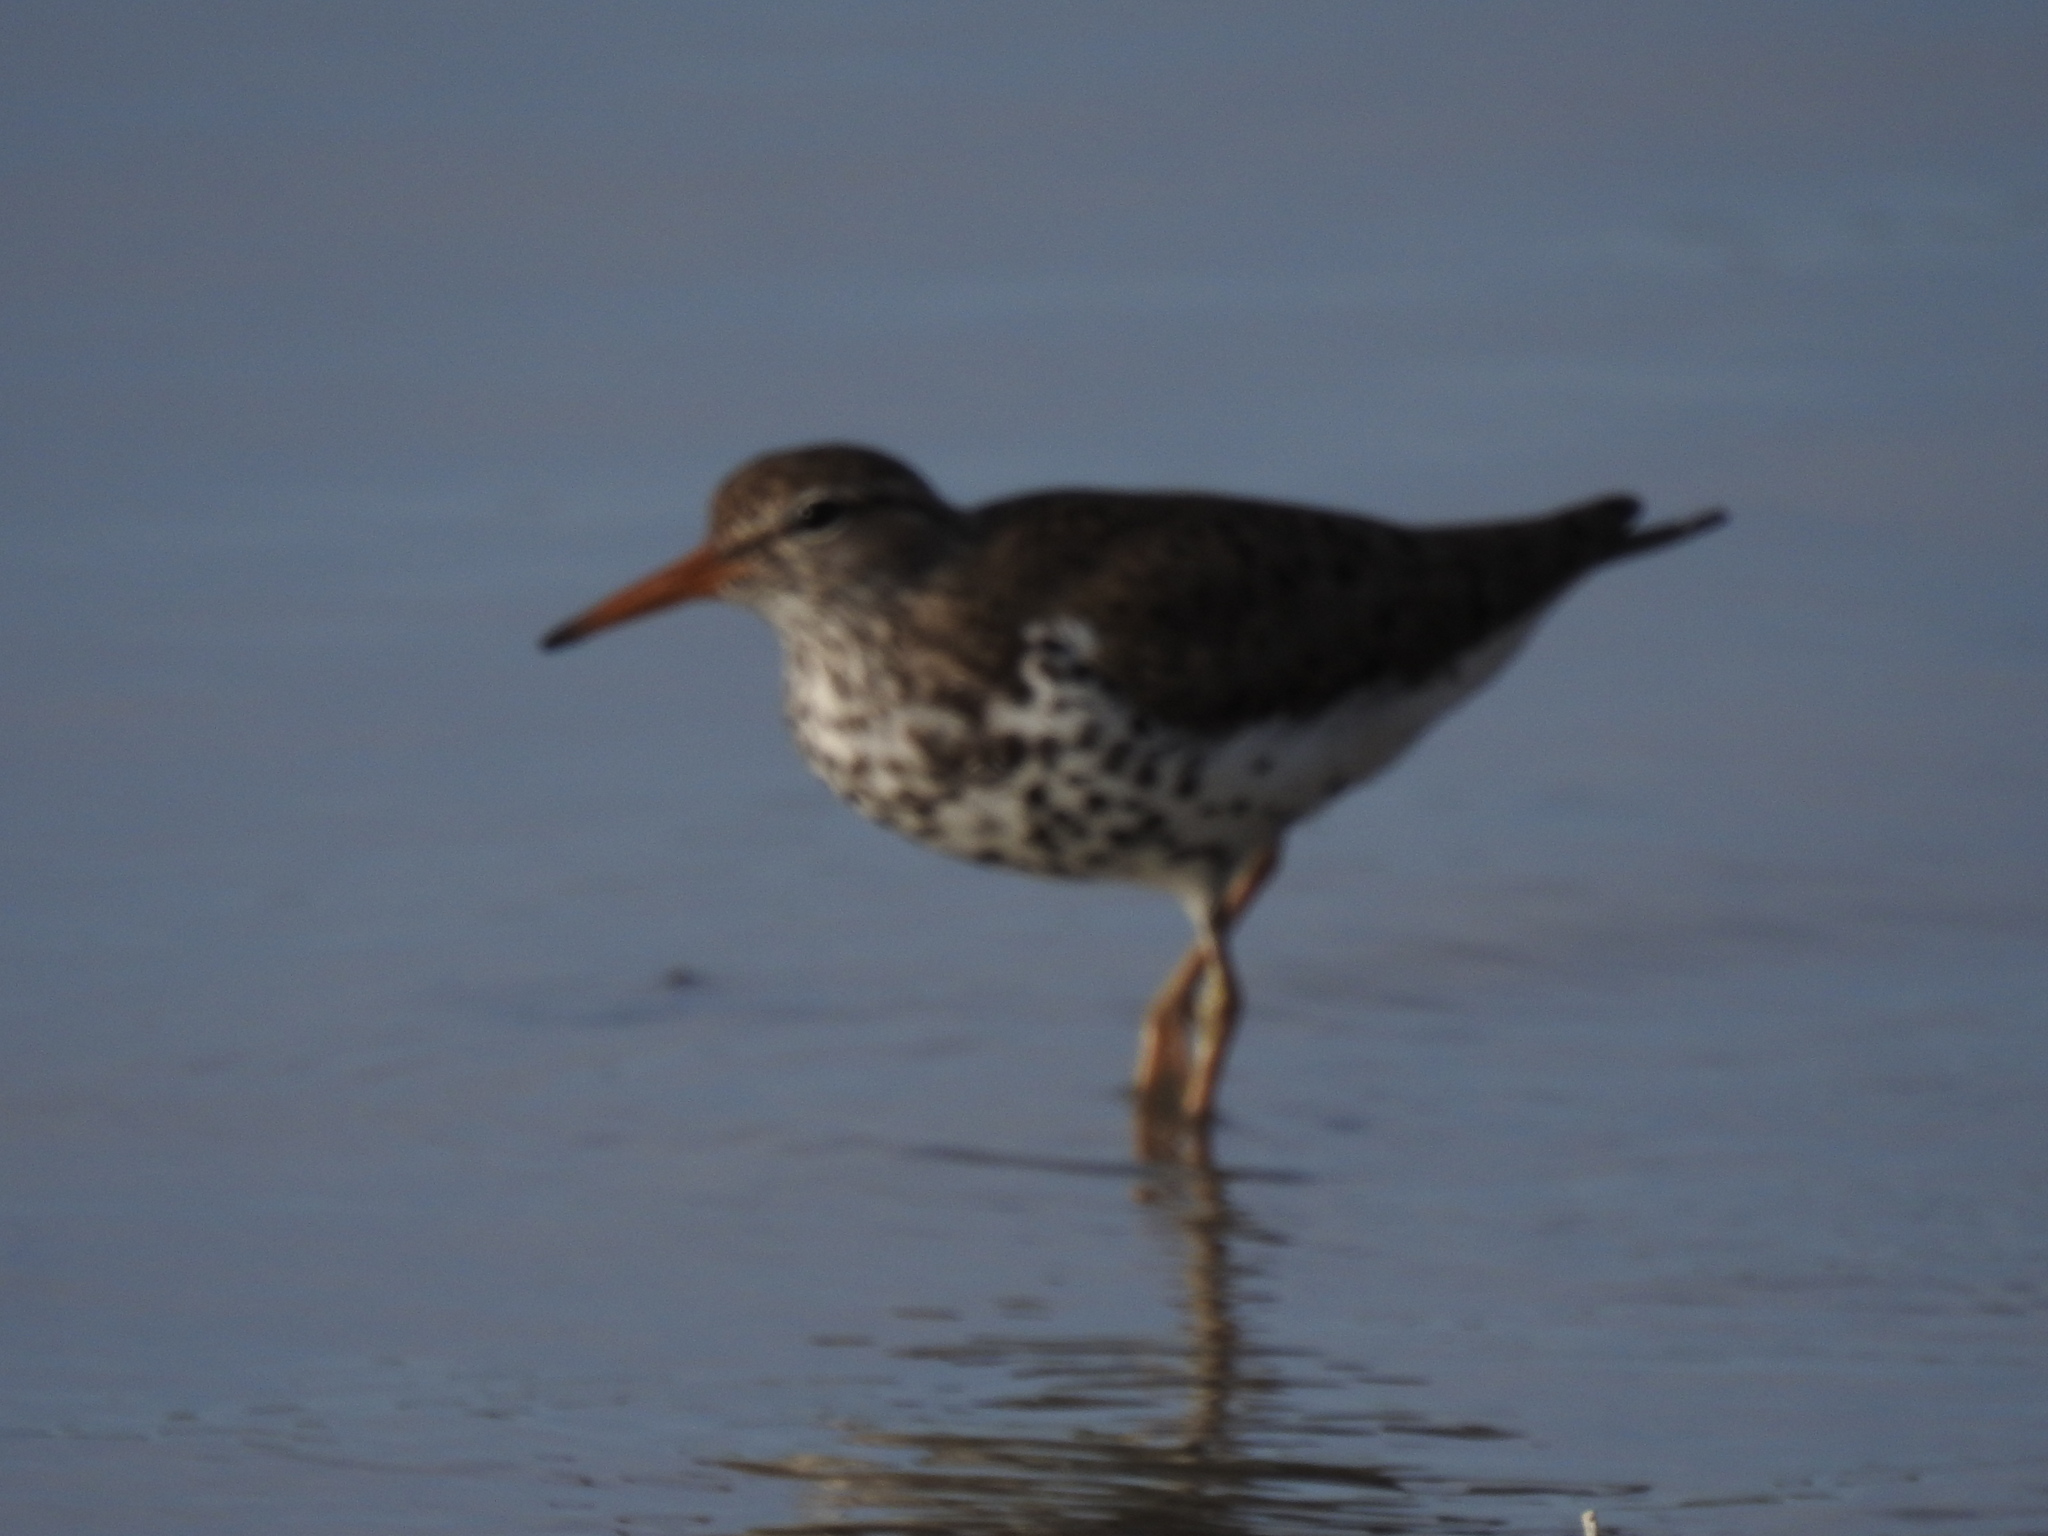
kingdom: Animalia
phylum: Chordata
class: Aves
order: Charadriiformes
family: Scolopacidae
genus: Actitis
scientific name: Actitis macularius
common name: Spotted sandpiper
